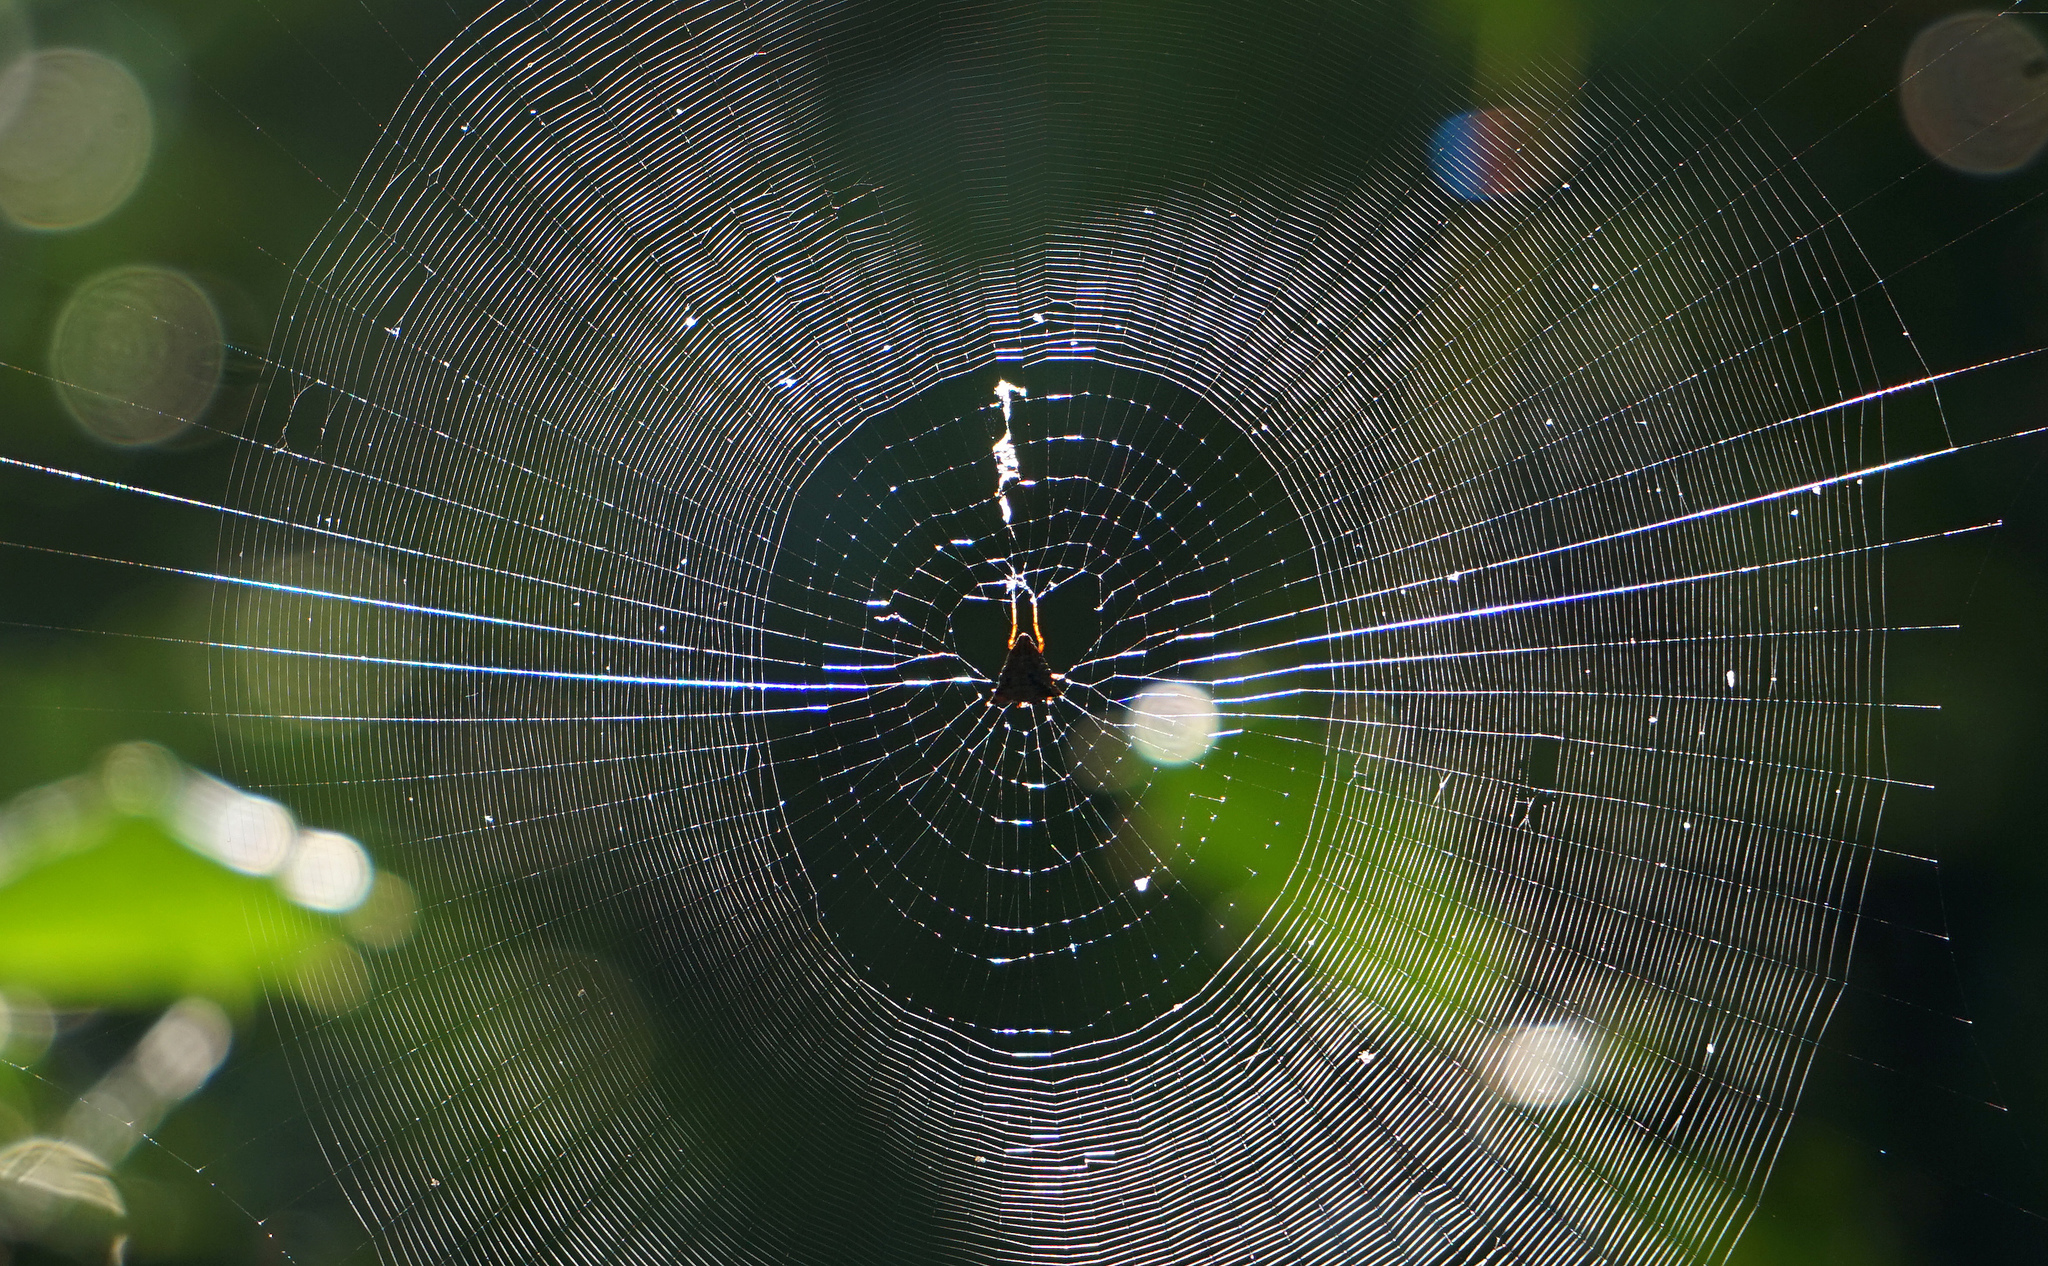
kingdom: Animalia
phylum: Arthropoda
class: Arachnida
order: Araneae
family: Araneidae
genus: Micrathena
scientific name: Micrathena gracilis
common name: Orb weavers
